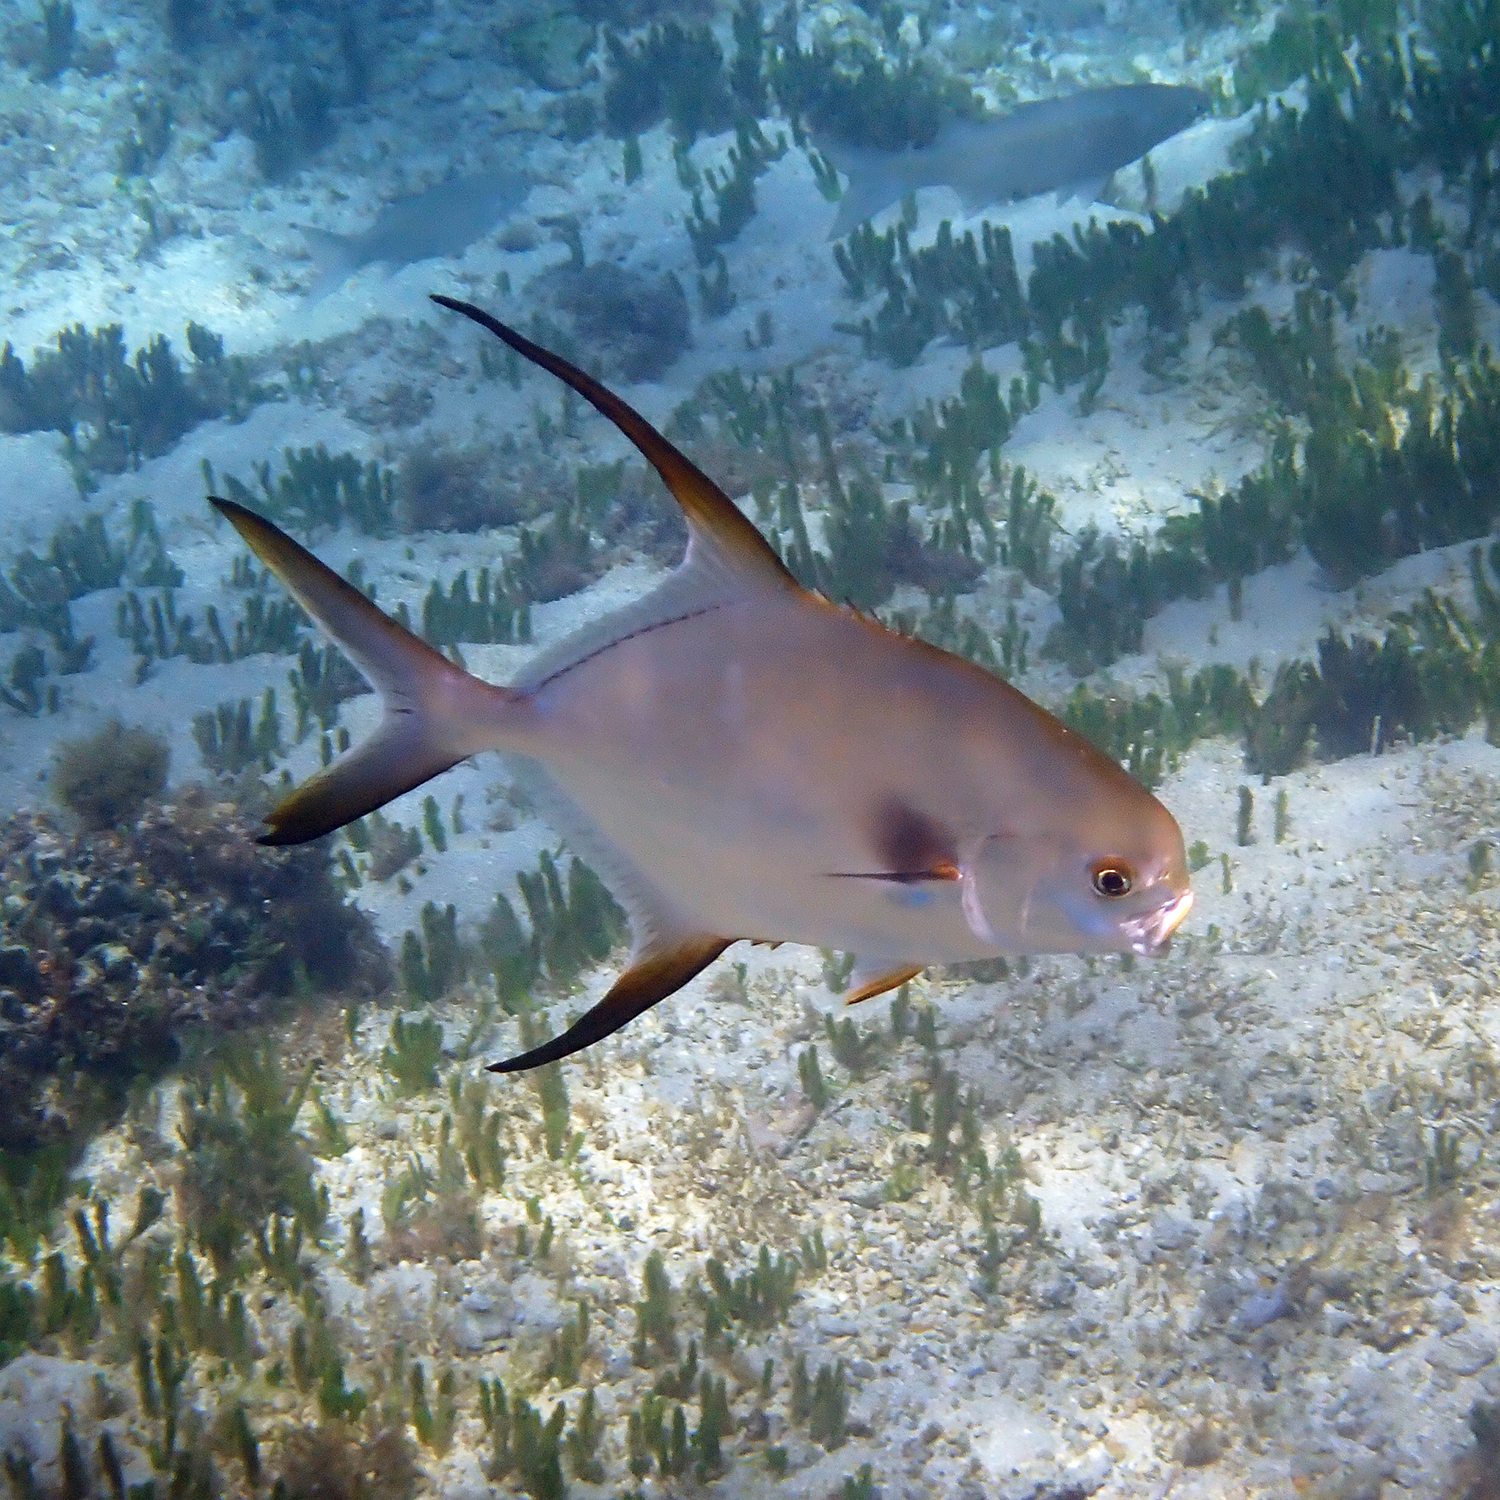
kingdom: Animalia
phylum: Chordata
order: Perciformes
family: Carangidae
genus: Trachinotus
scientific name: Trachinotus blochii
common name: Snubnose pompano
